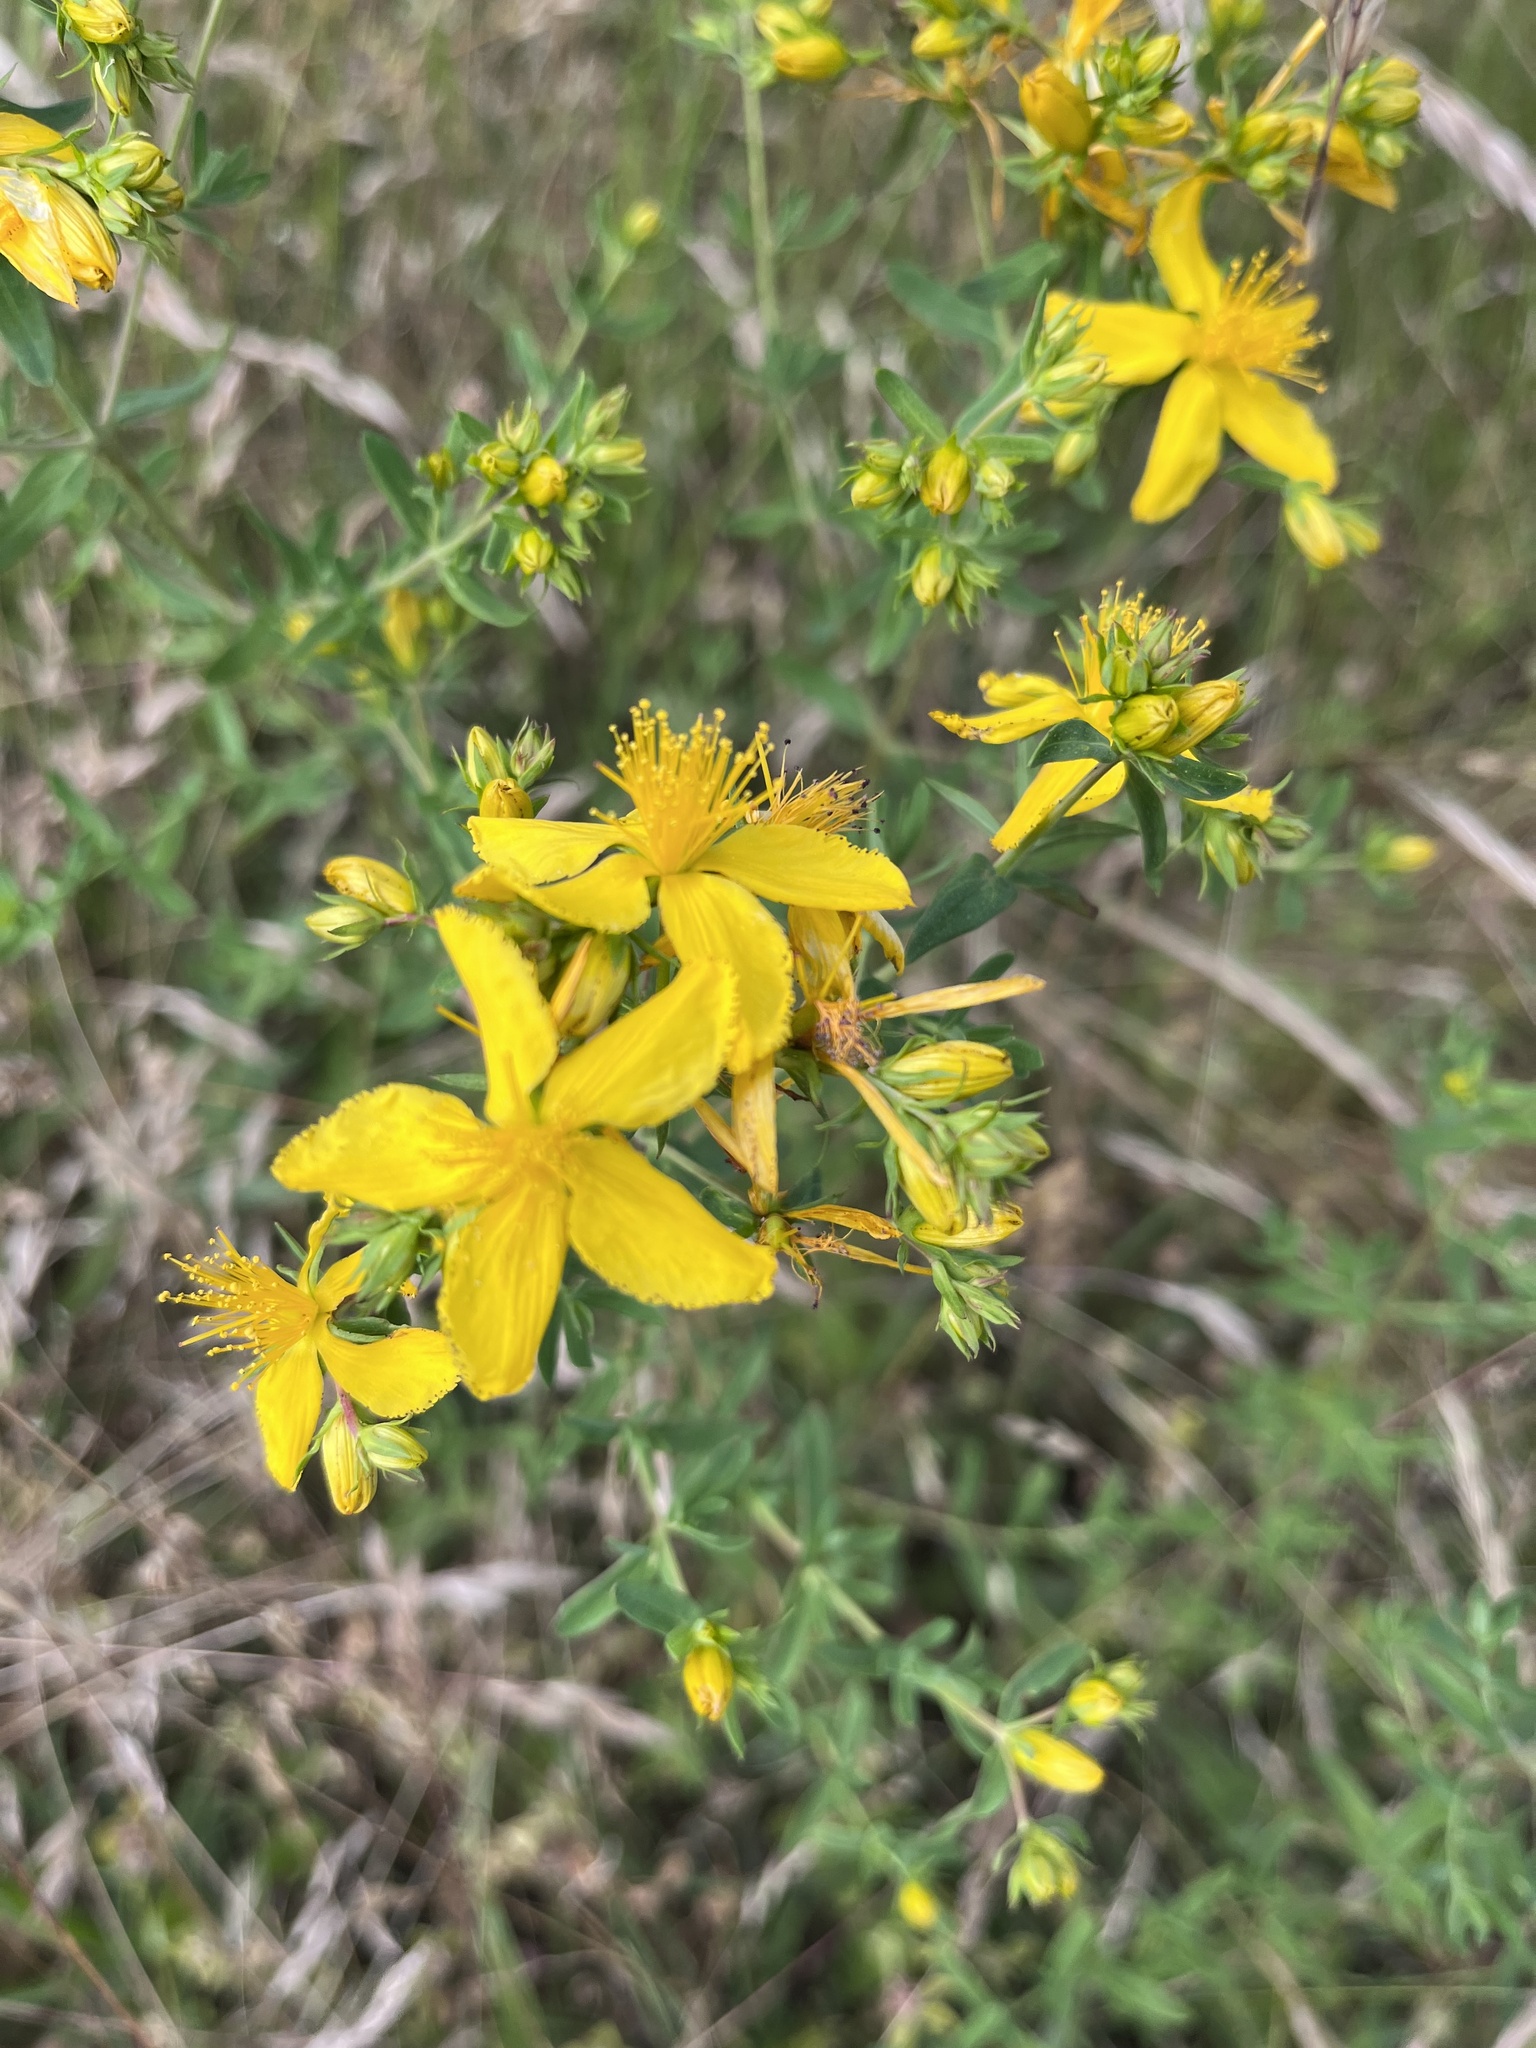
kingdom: Plantae
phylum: Tracheophyta
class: Magnoliopsida
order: Malpighiales
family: Hypericaceae
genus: Hypericum
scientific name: Hypericum perforatum
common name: Common st. johnswort
